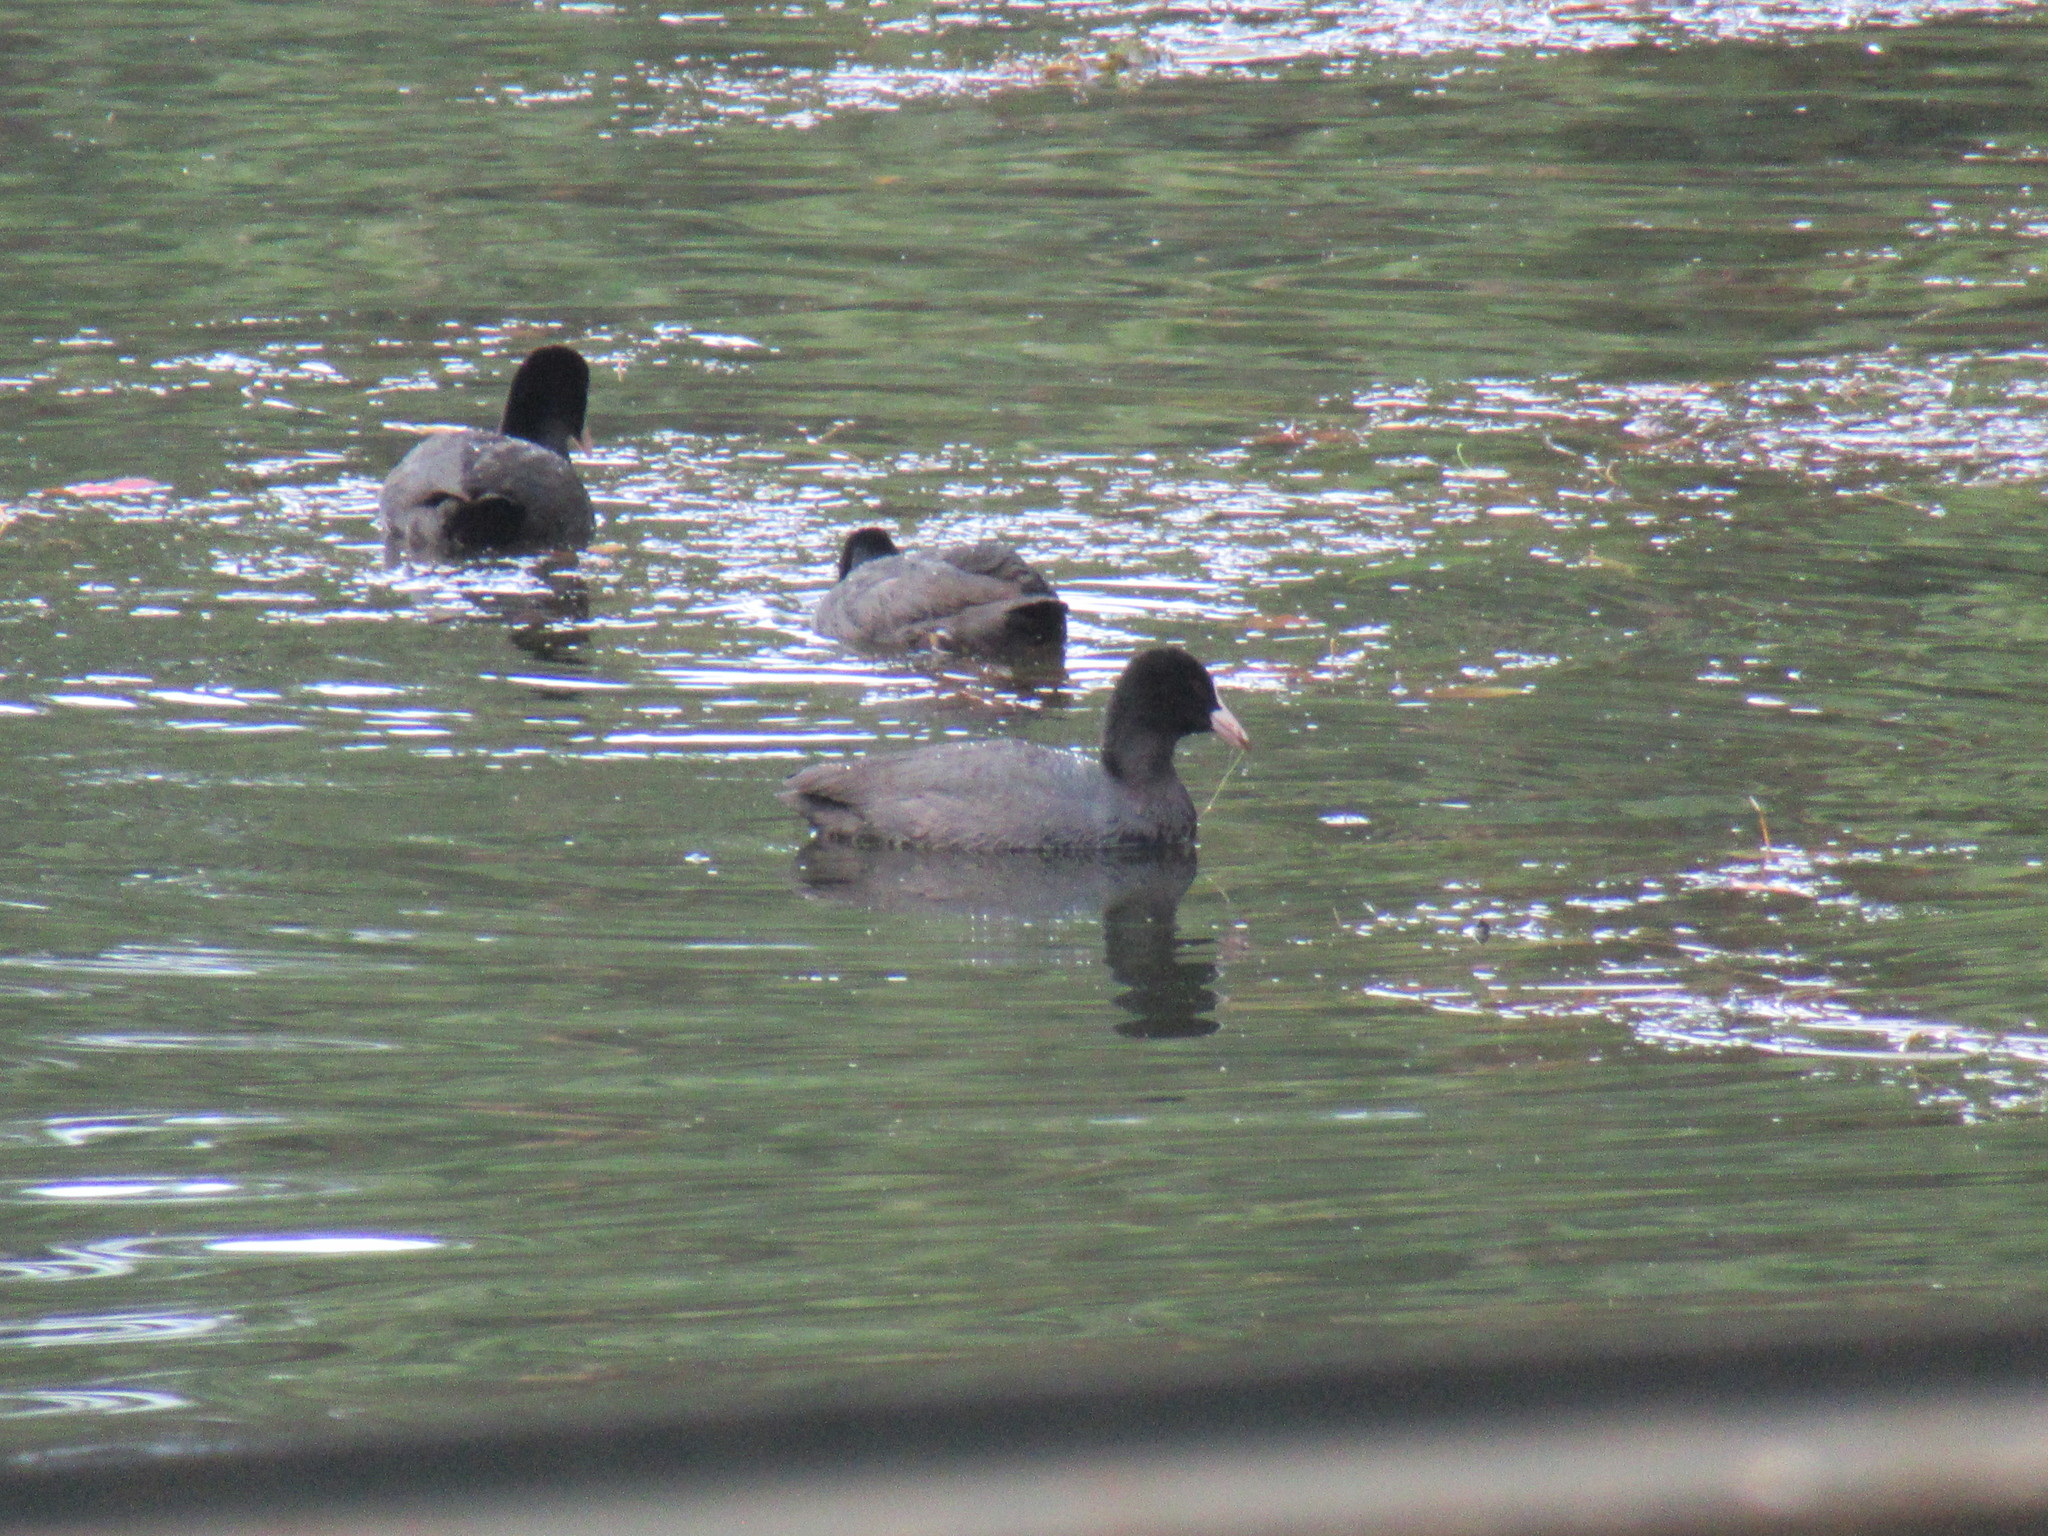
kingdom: Animalia
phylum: Chordata
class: Aves
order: Gruiformes
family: Rallidae
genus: Fulica
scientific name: Fulica atra
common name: Eurasian coot
